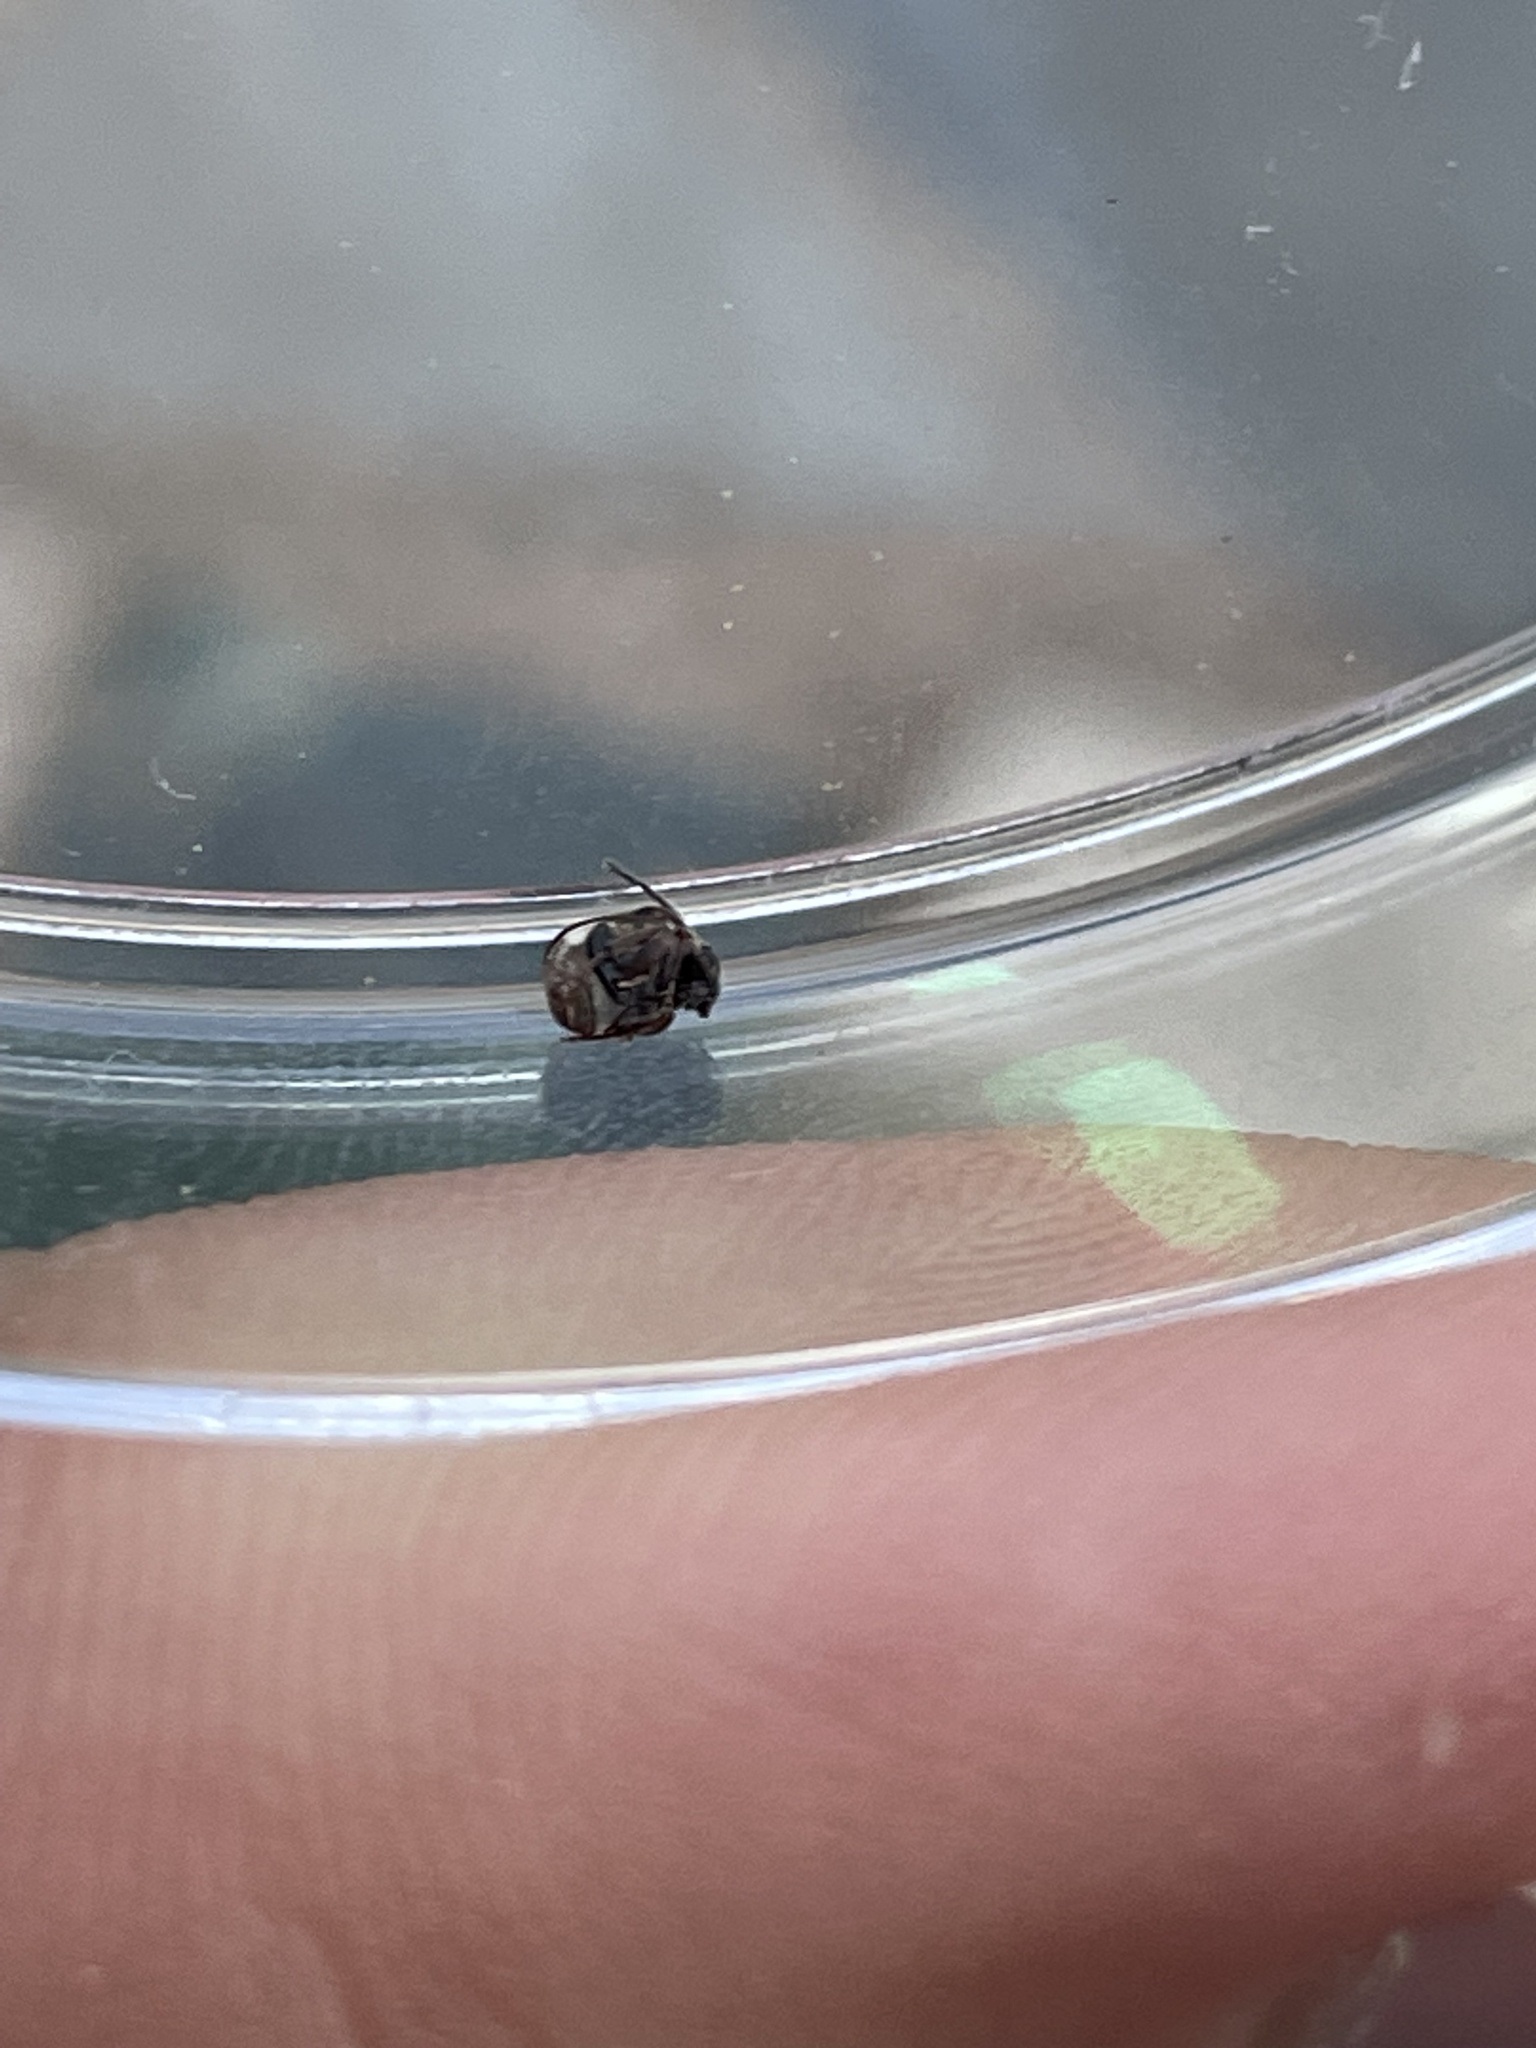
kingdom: Animalia
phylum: Arthropoda
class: Insecta
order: Coleoptera
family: Chrysomelidae
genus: Megacerus
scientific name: Megacerus cubiculus
